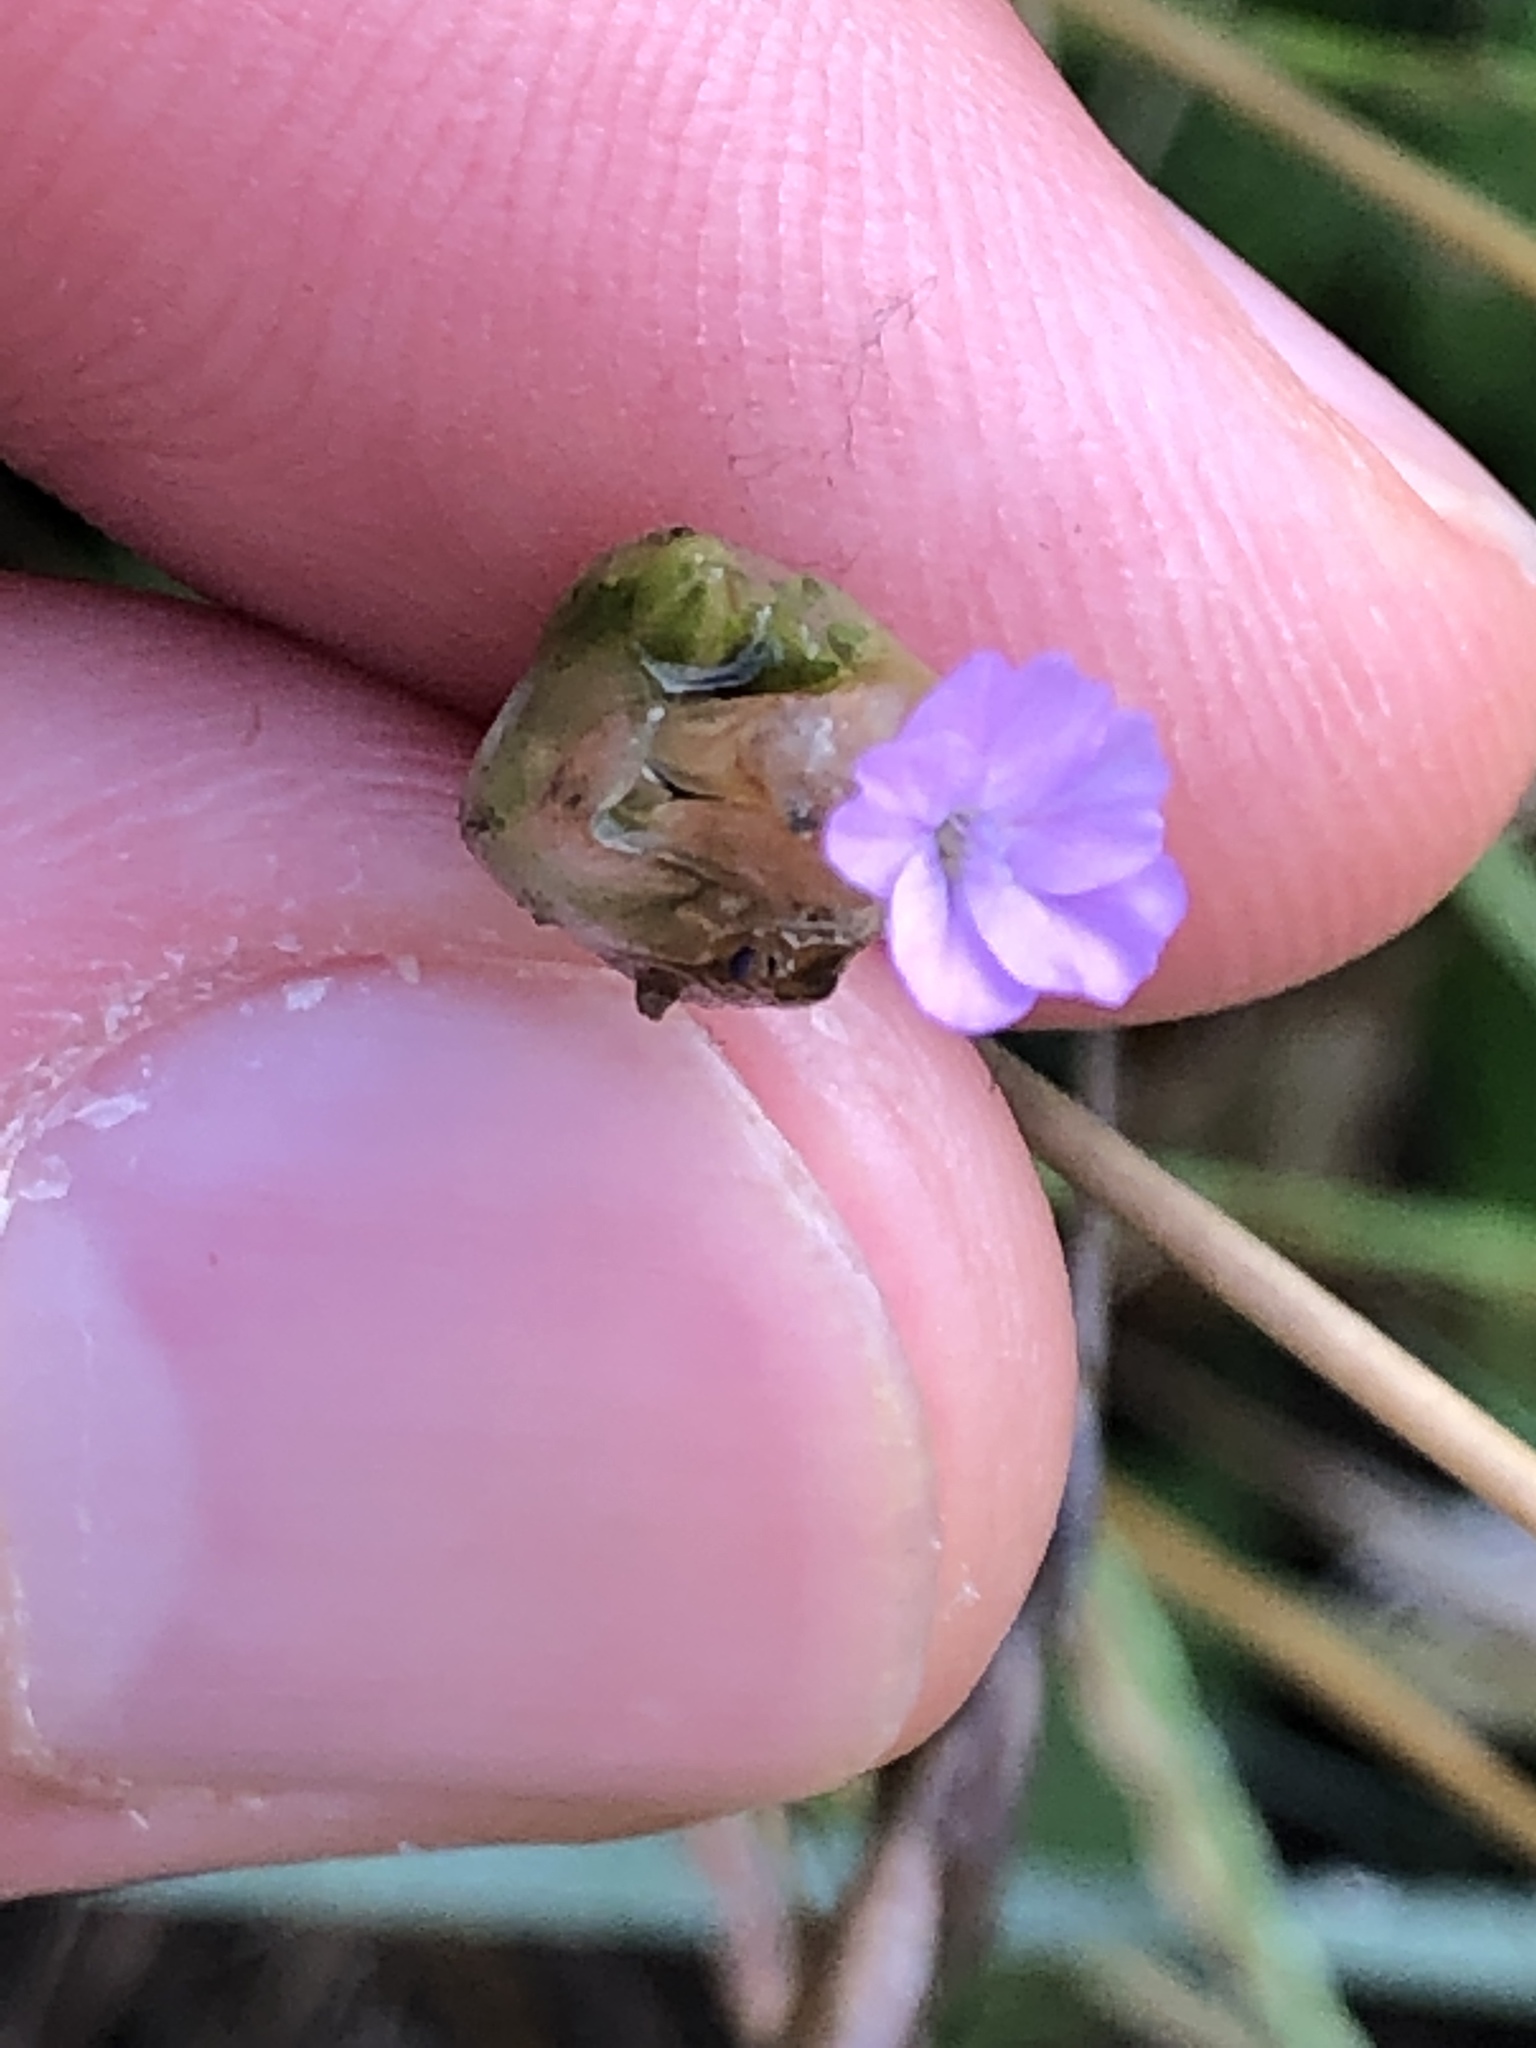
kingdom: Plantae
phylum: Tracheophyta
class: Magnoliopsida
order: Caryophyllales
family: Caryophyllaceae
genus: Petrorhagia
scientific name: Petrorhagia prolifera
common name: Proliferous pink
